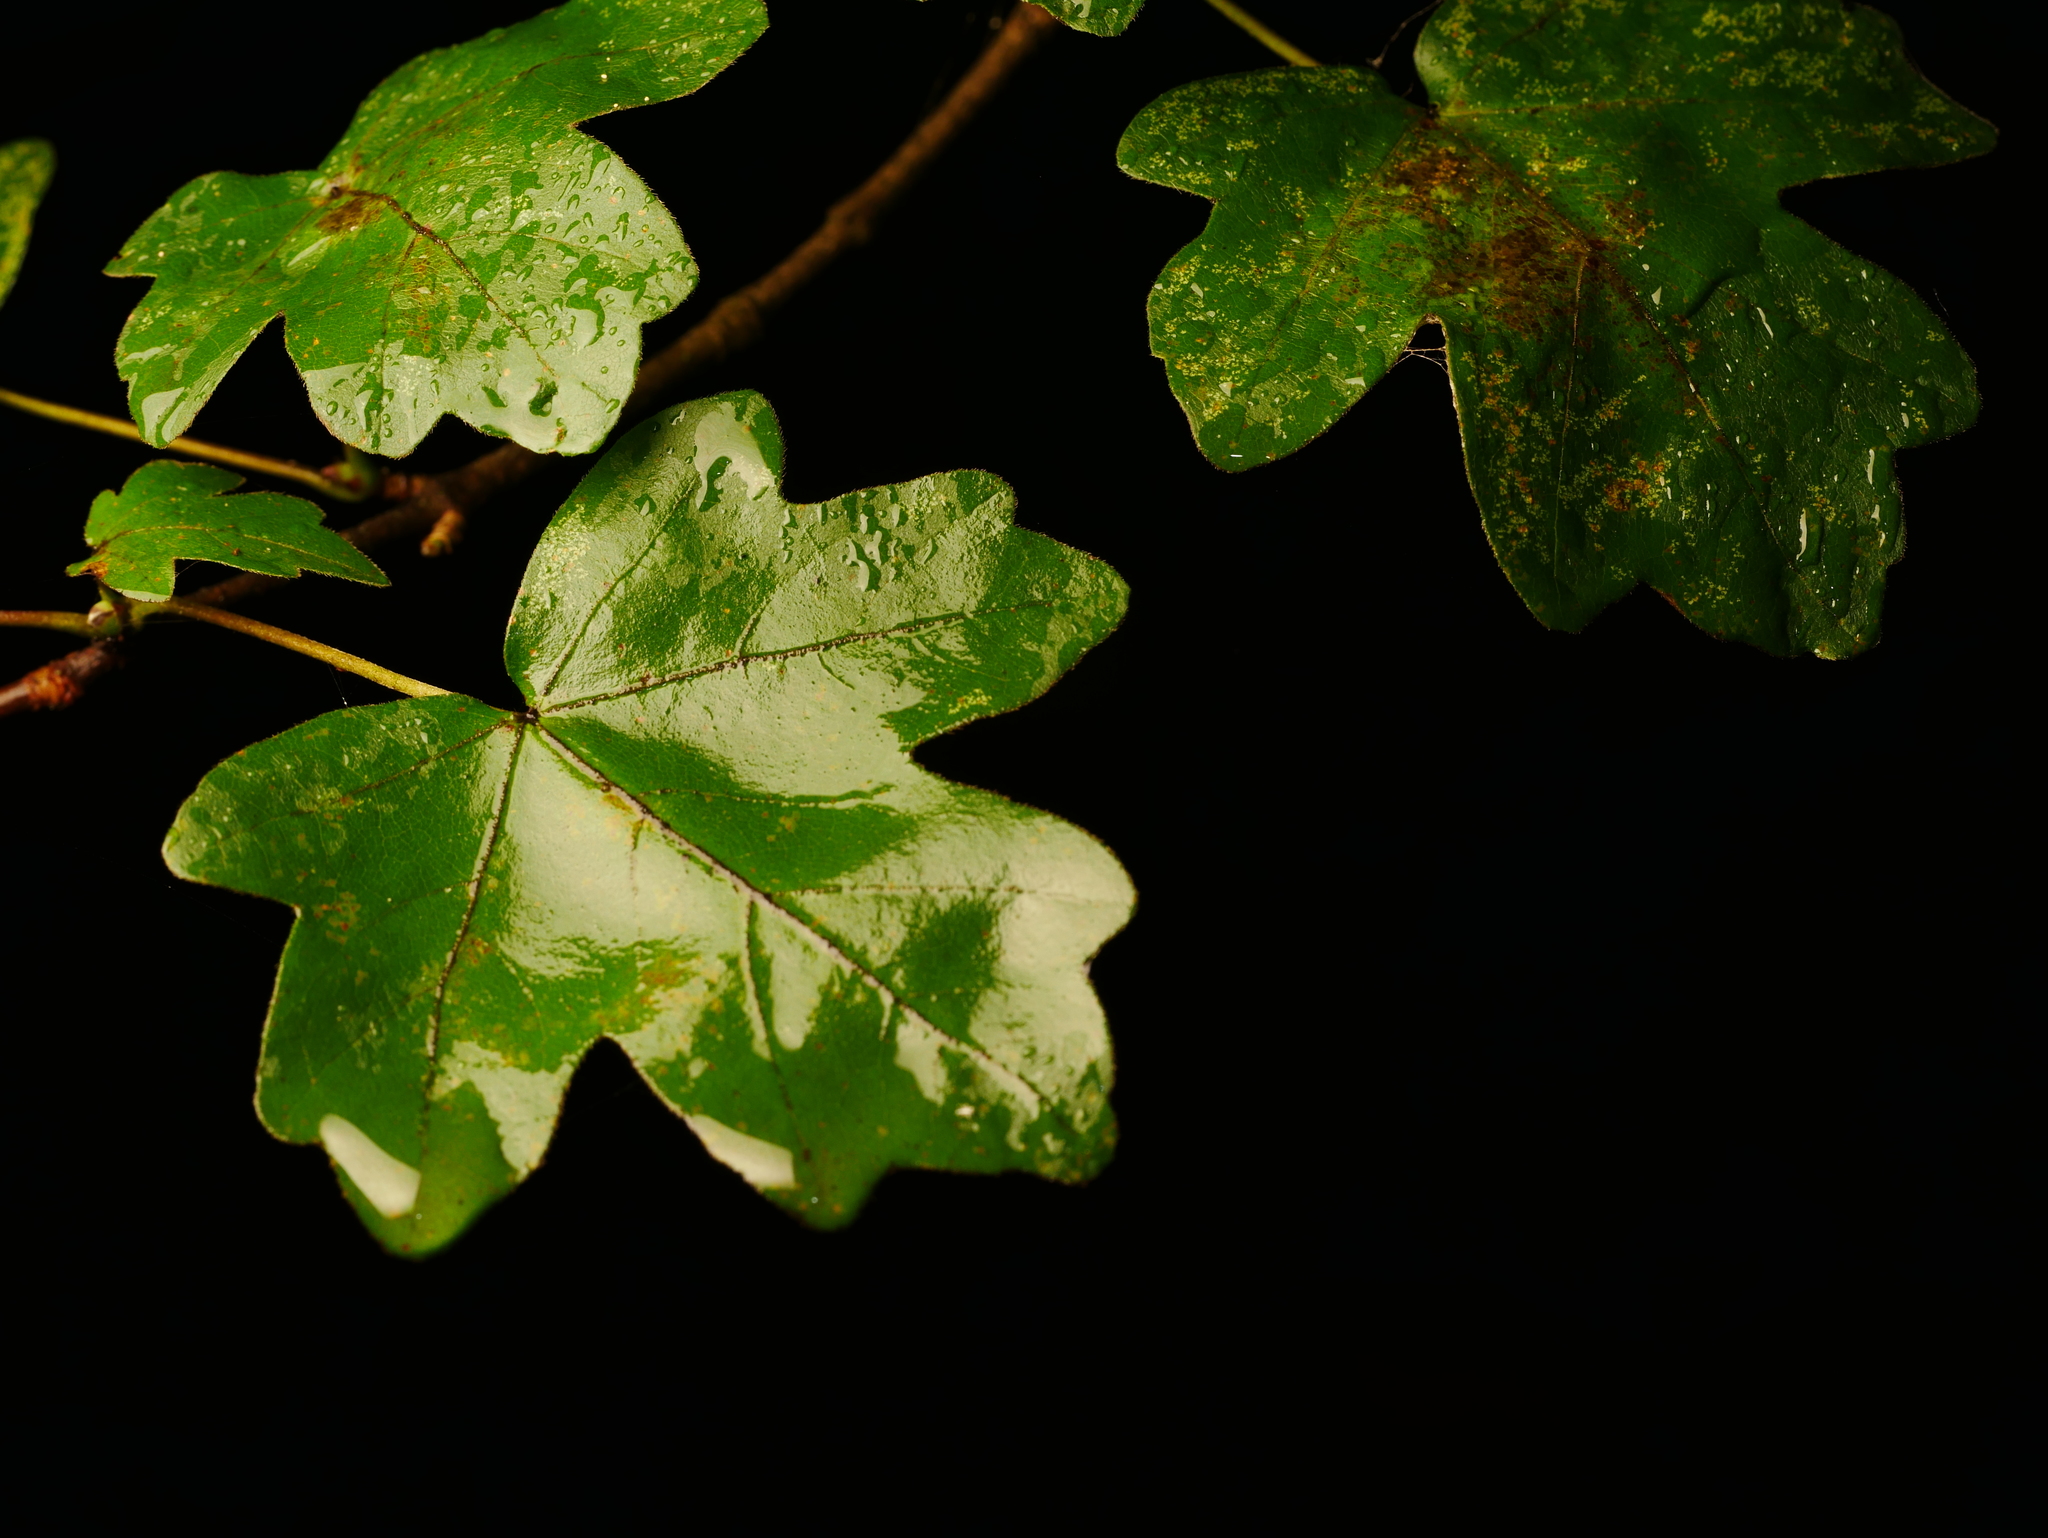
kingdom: Plantae
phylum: Tracheophyta
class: Magnoliopsida
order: Sapindales
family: Sapindaceae
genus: Acer
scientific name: Acer campestre
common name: Field maple
